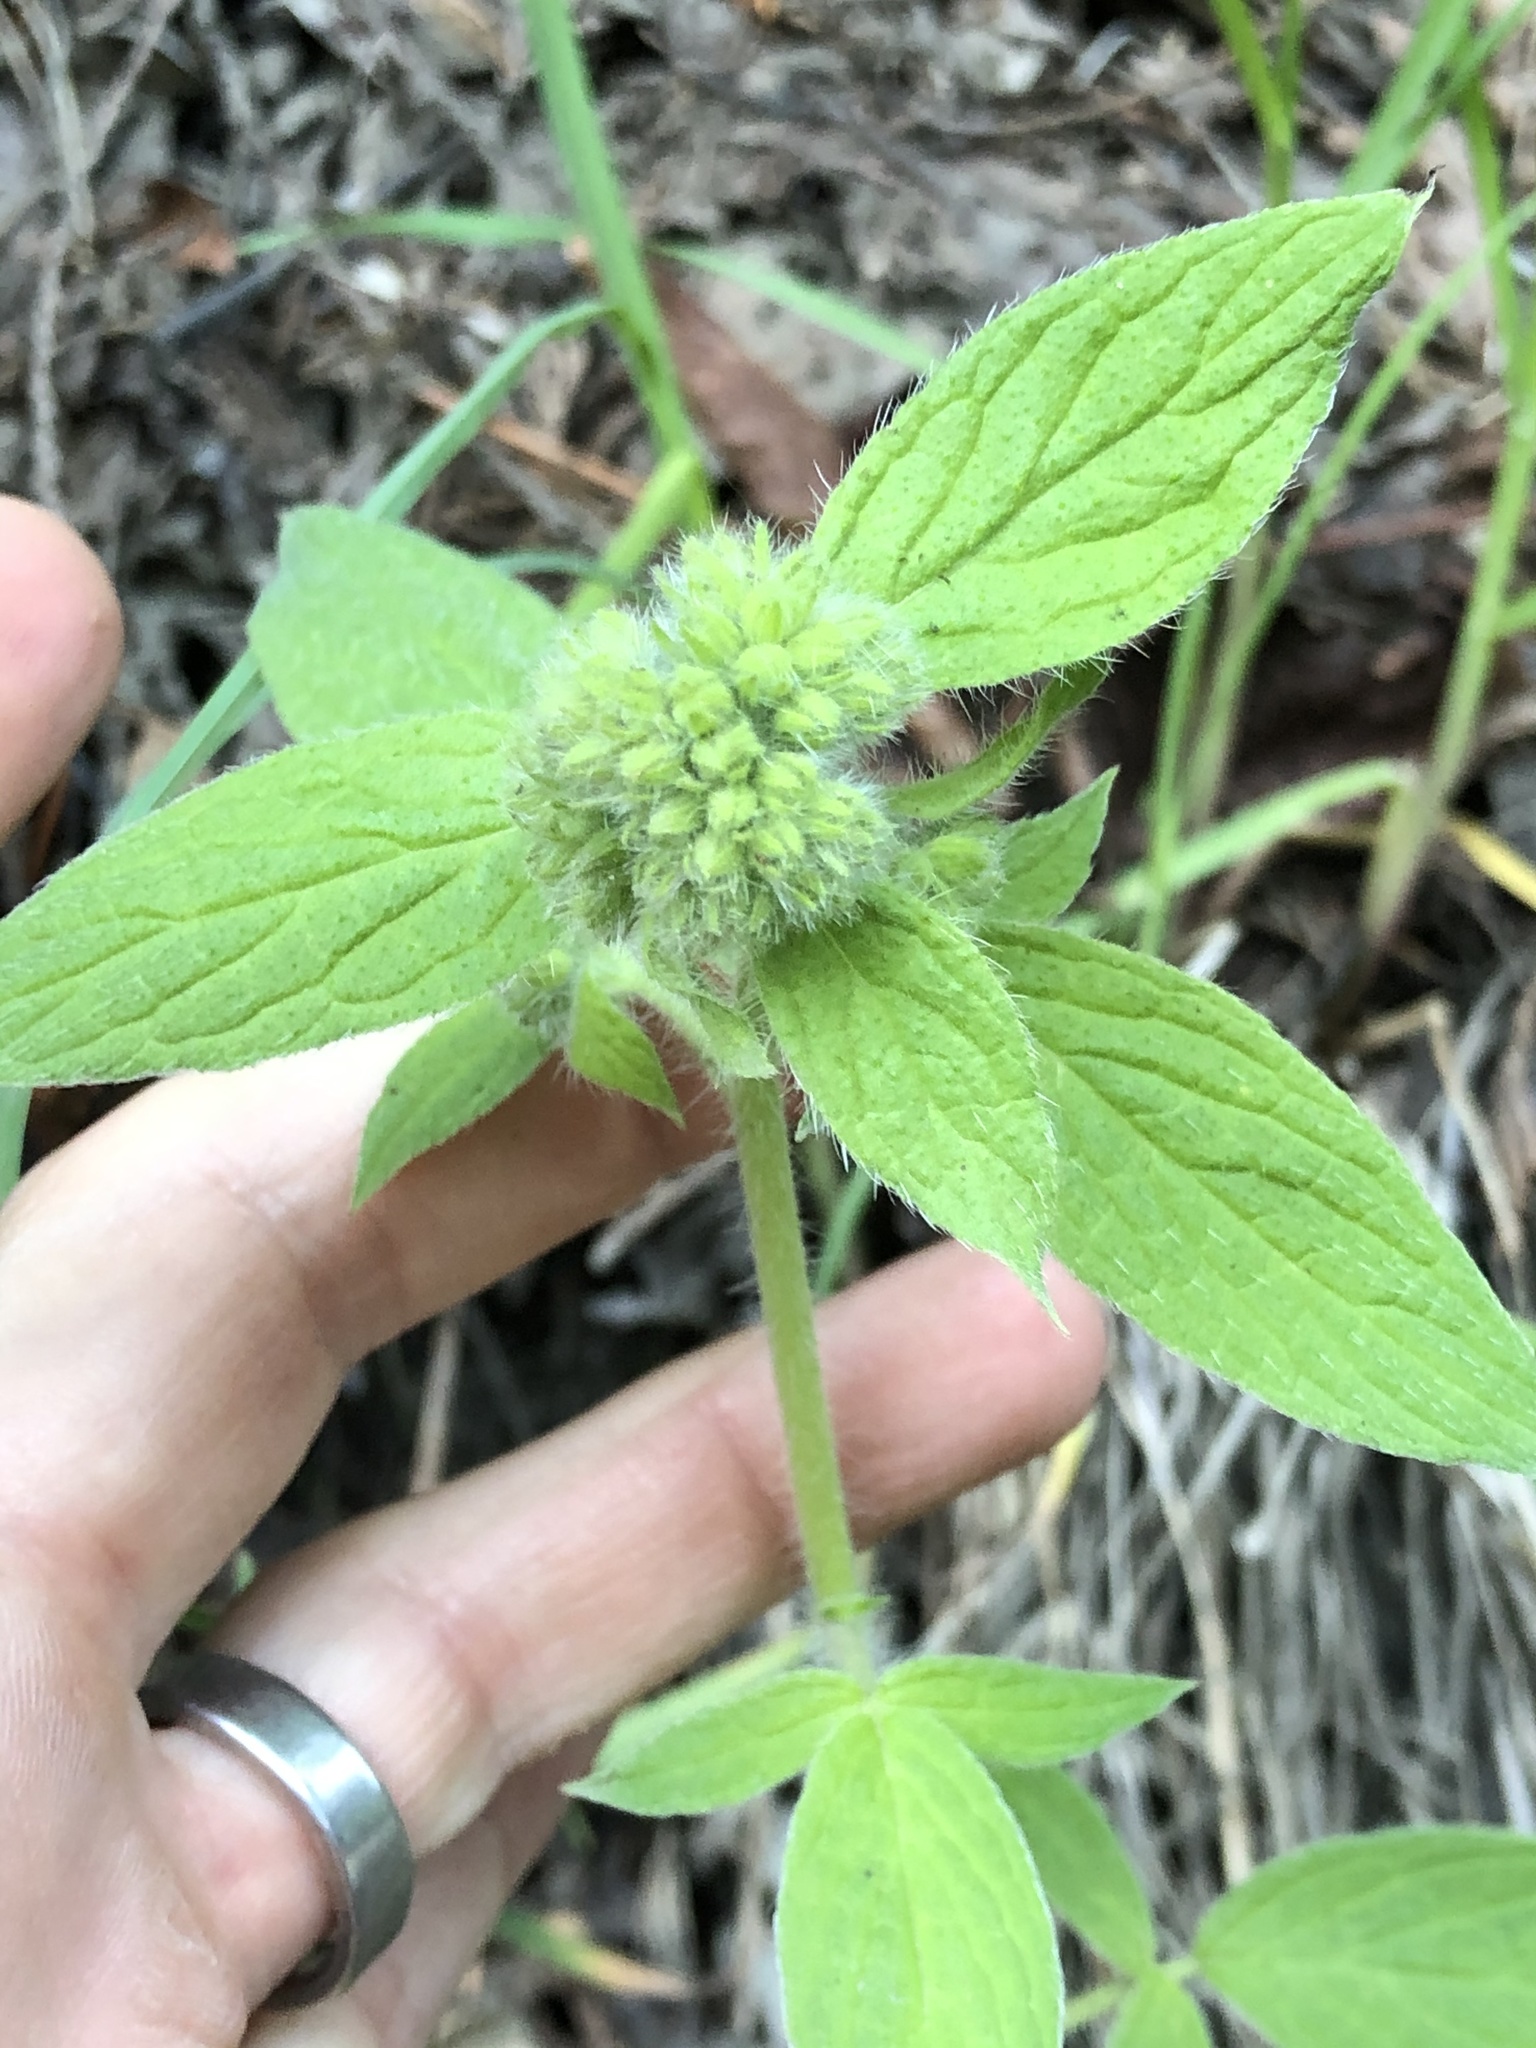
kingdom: Plantae
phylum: Tracheophyta
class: Magnoliopsida
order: Boraginales
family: Hydrophyllaceae
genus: Phacelia
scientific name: Phacelia nemoralis
